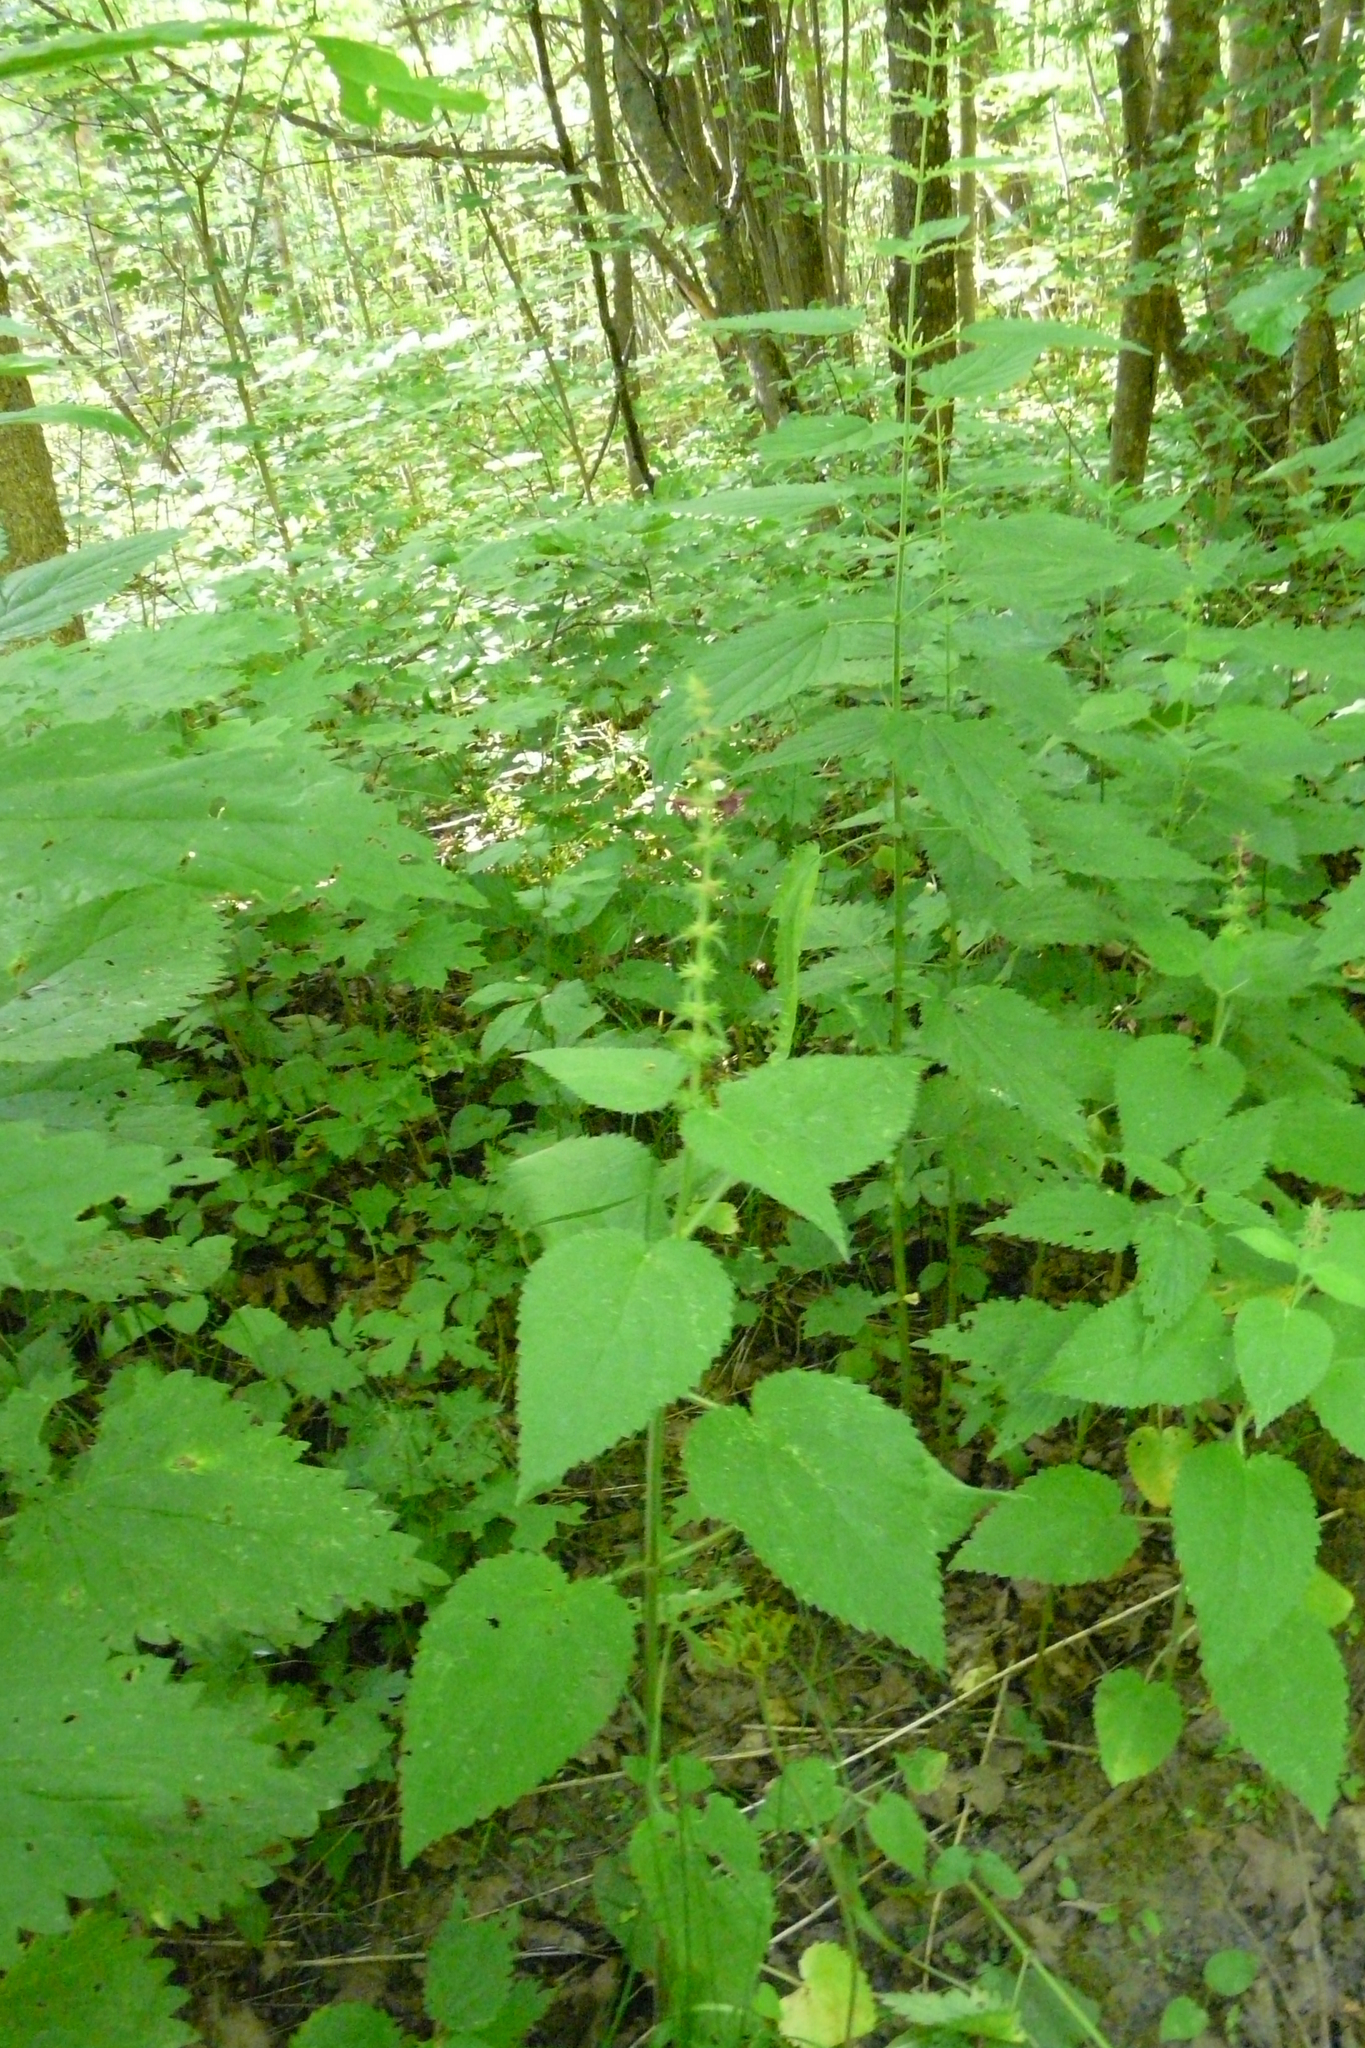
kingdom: Plantae
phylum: Tracheophyta
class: Magnoliopsida
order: Lamiales
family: Lamiaceae
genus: Stachys
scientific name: Stachys sylvatica
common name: Hedge woundwort
